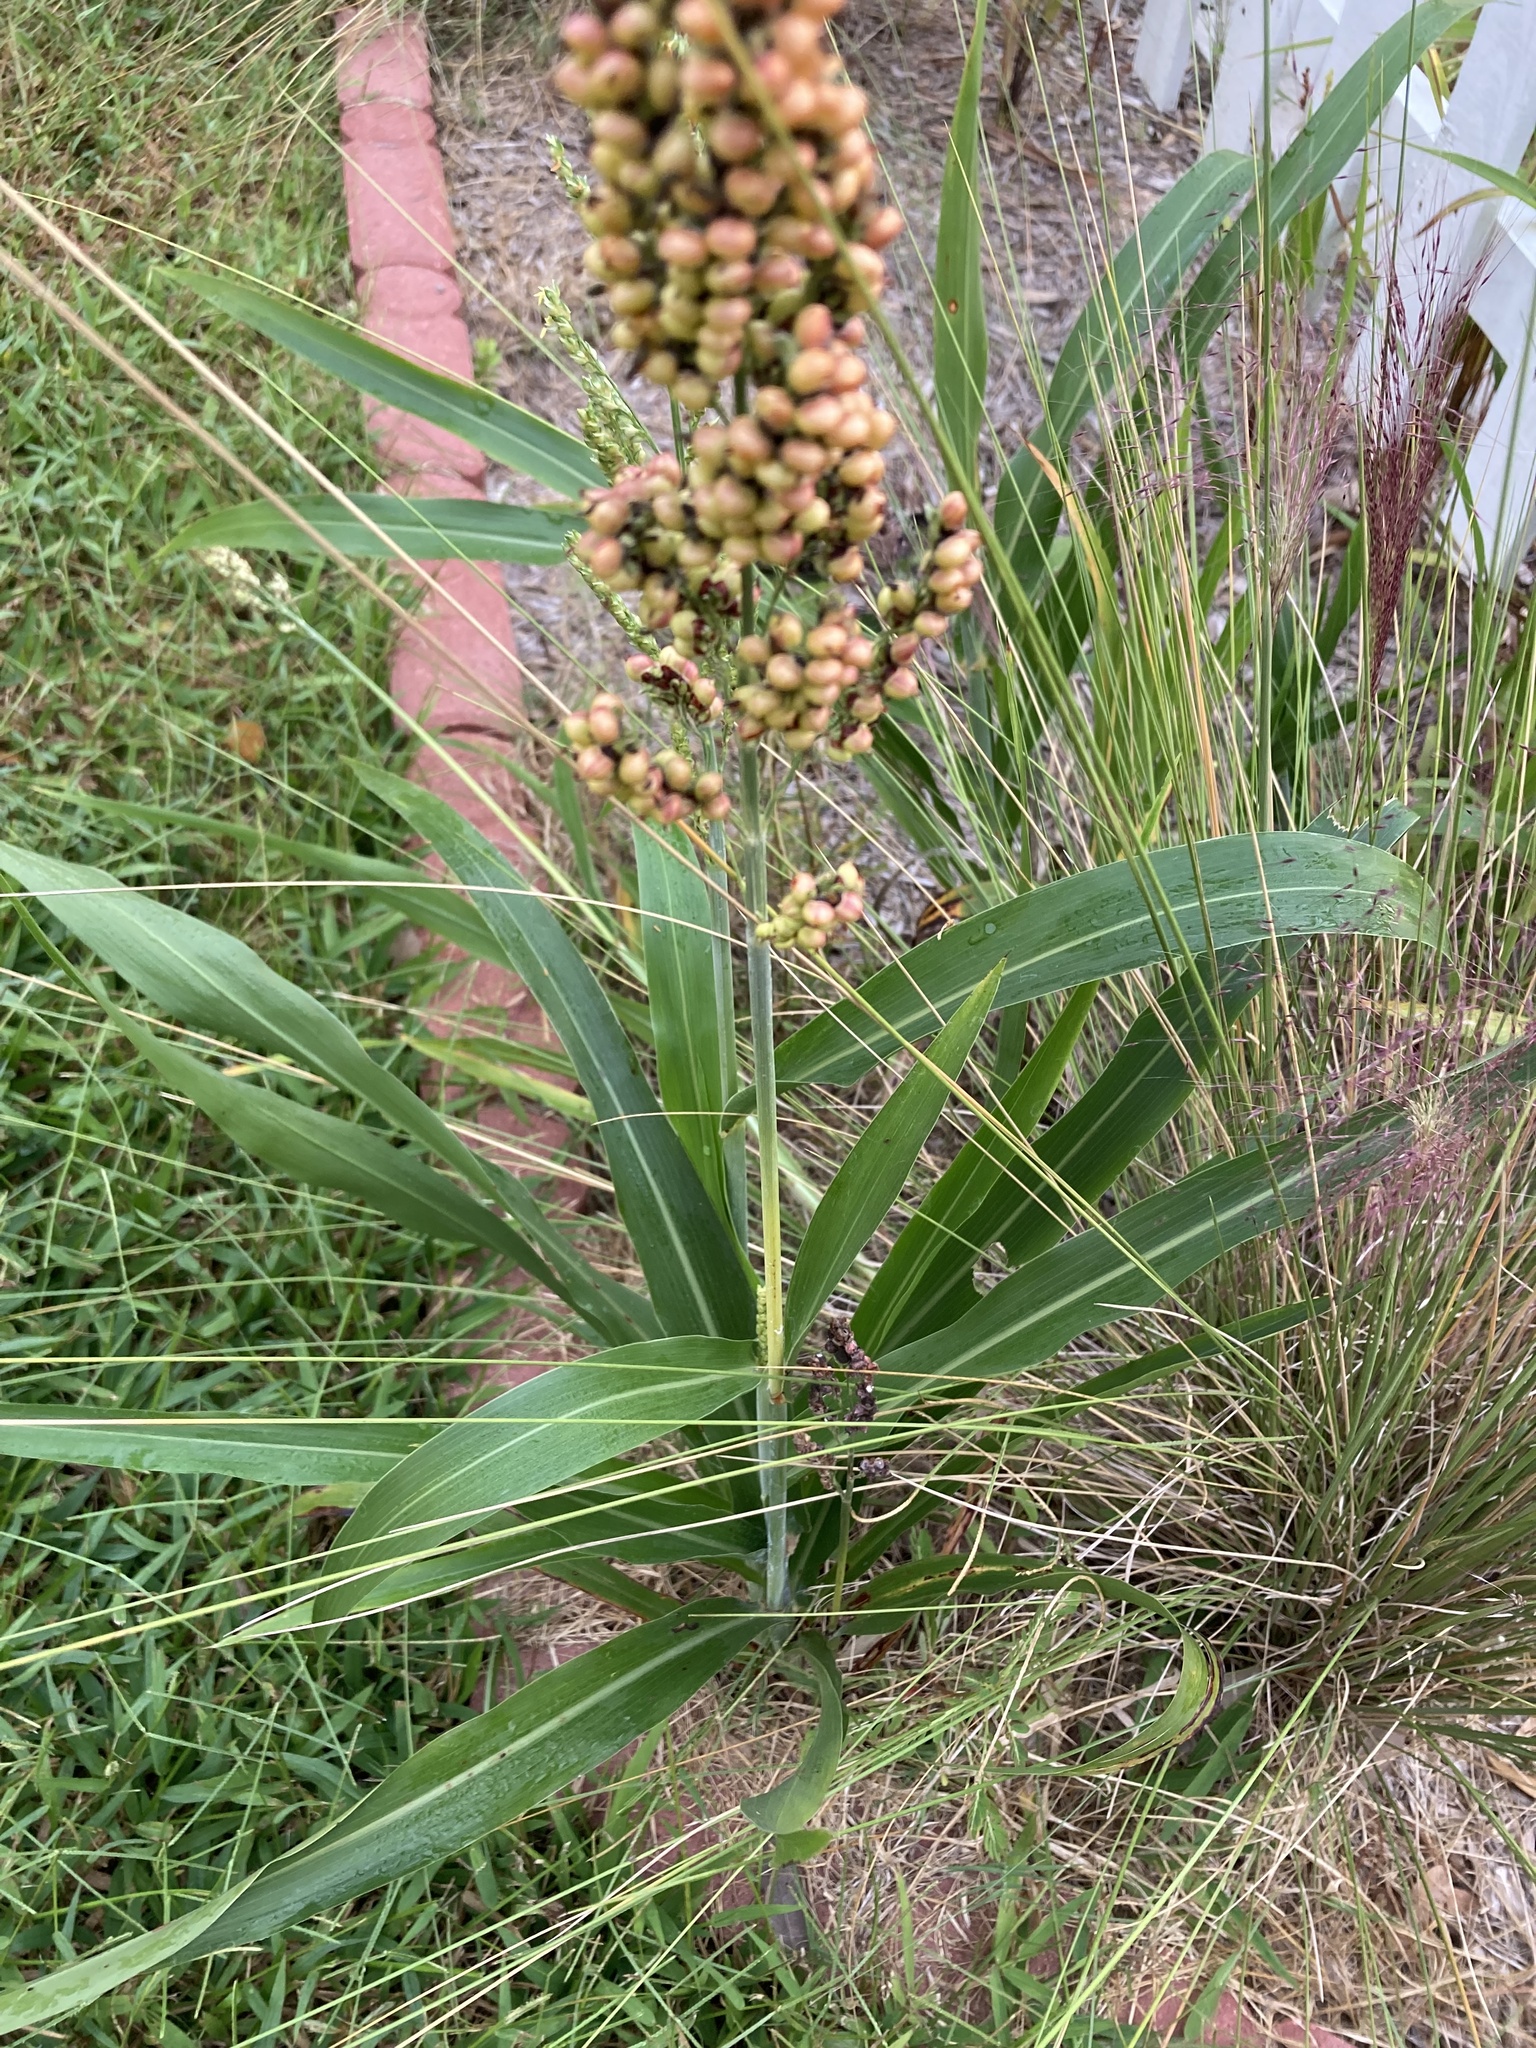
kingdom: Plantae
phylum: Tracheophyta
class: Liliopsida
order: Poales
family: Poaceae
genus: Sorghum
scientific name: Sorghum bicolor
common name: Sorghum
